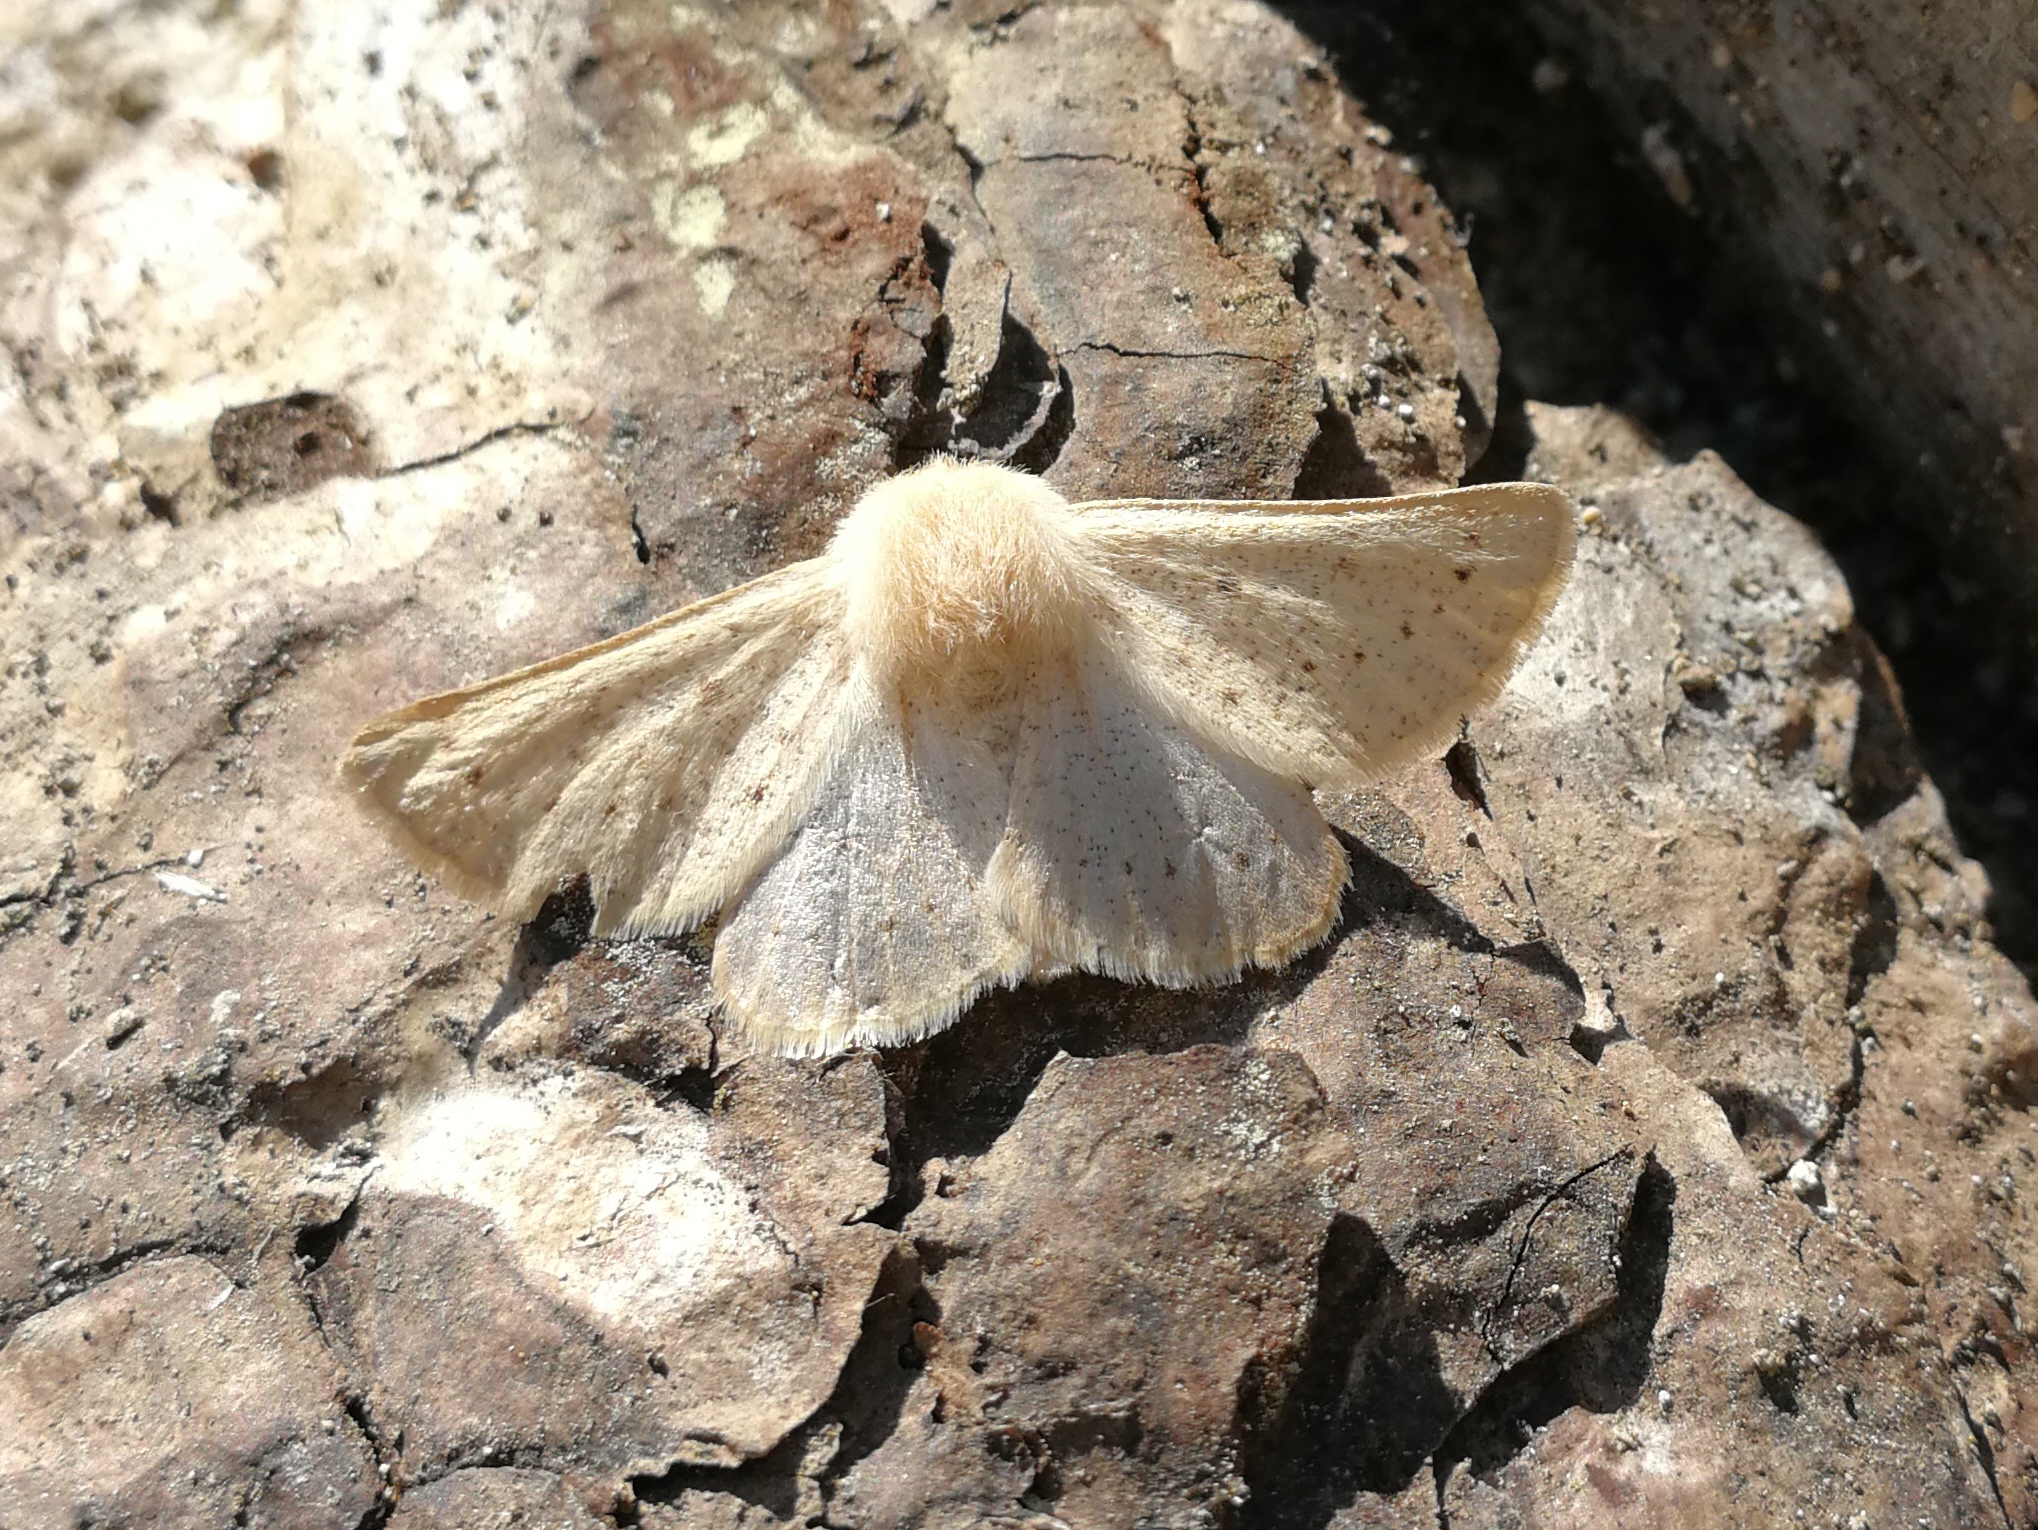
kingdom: Animalia
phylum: Arthropoda
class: Insecta
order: Lepidoptera
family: Geometridae
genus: Dyscia
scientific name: Dyscia lentiscaria
